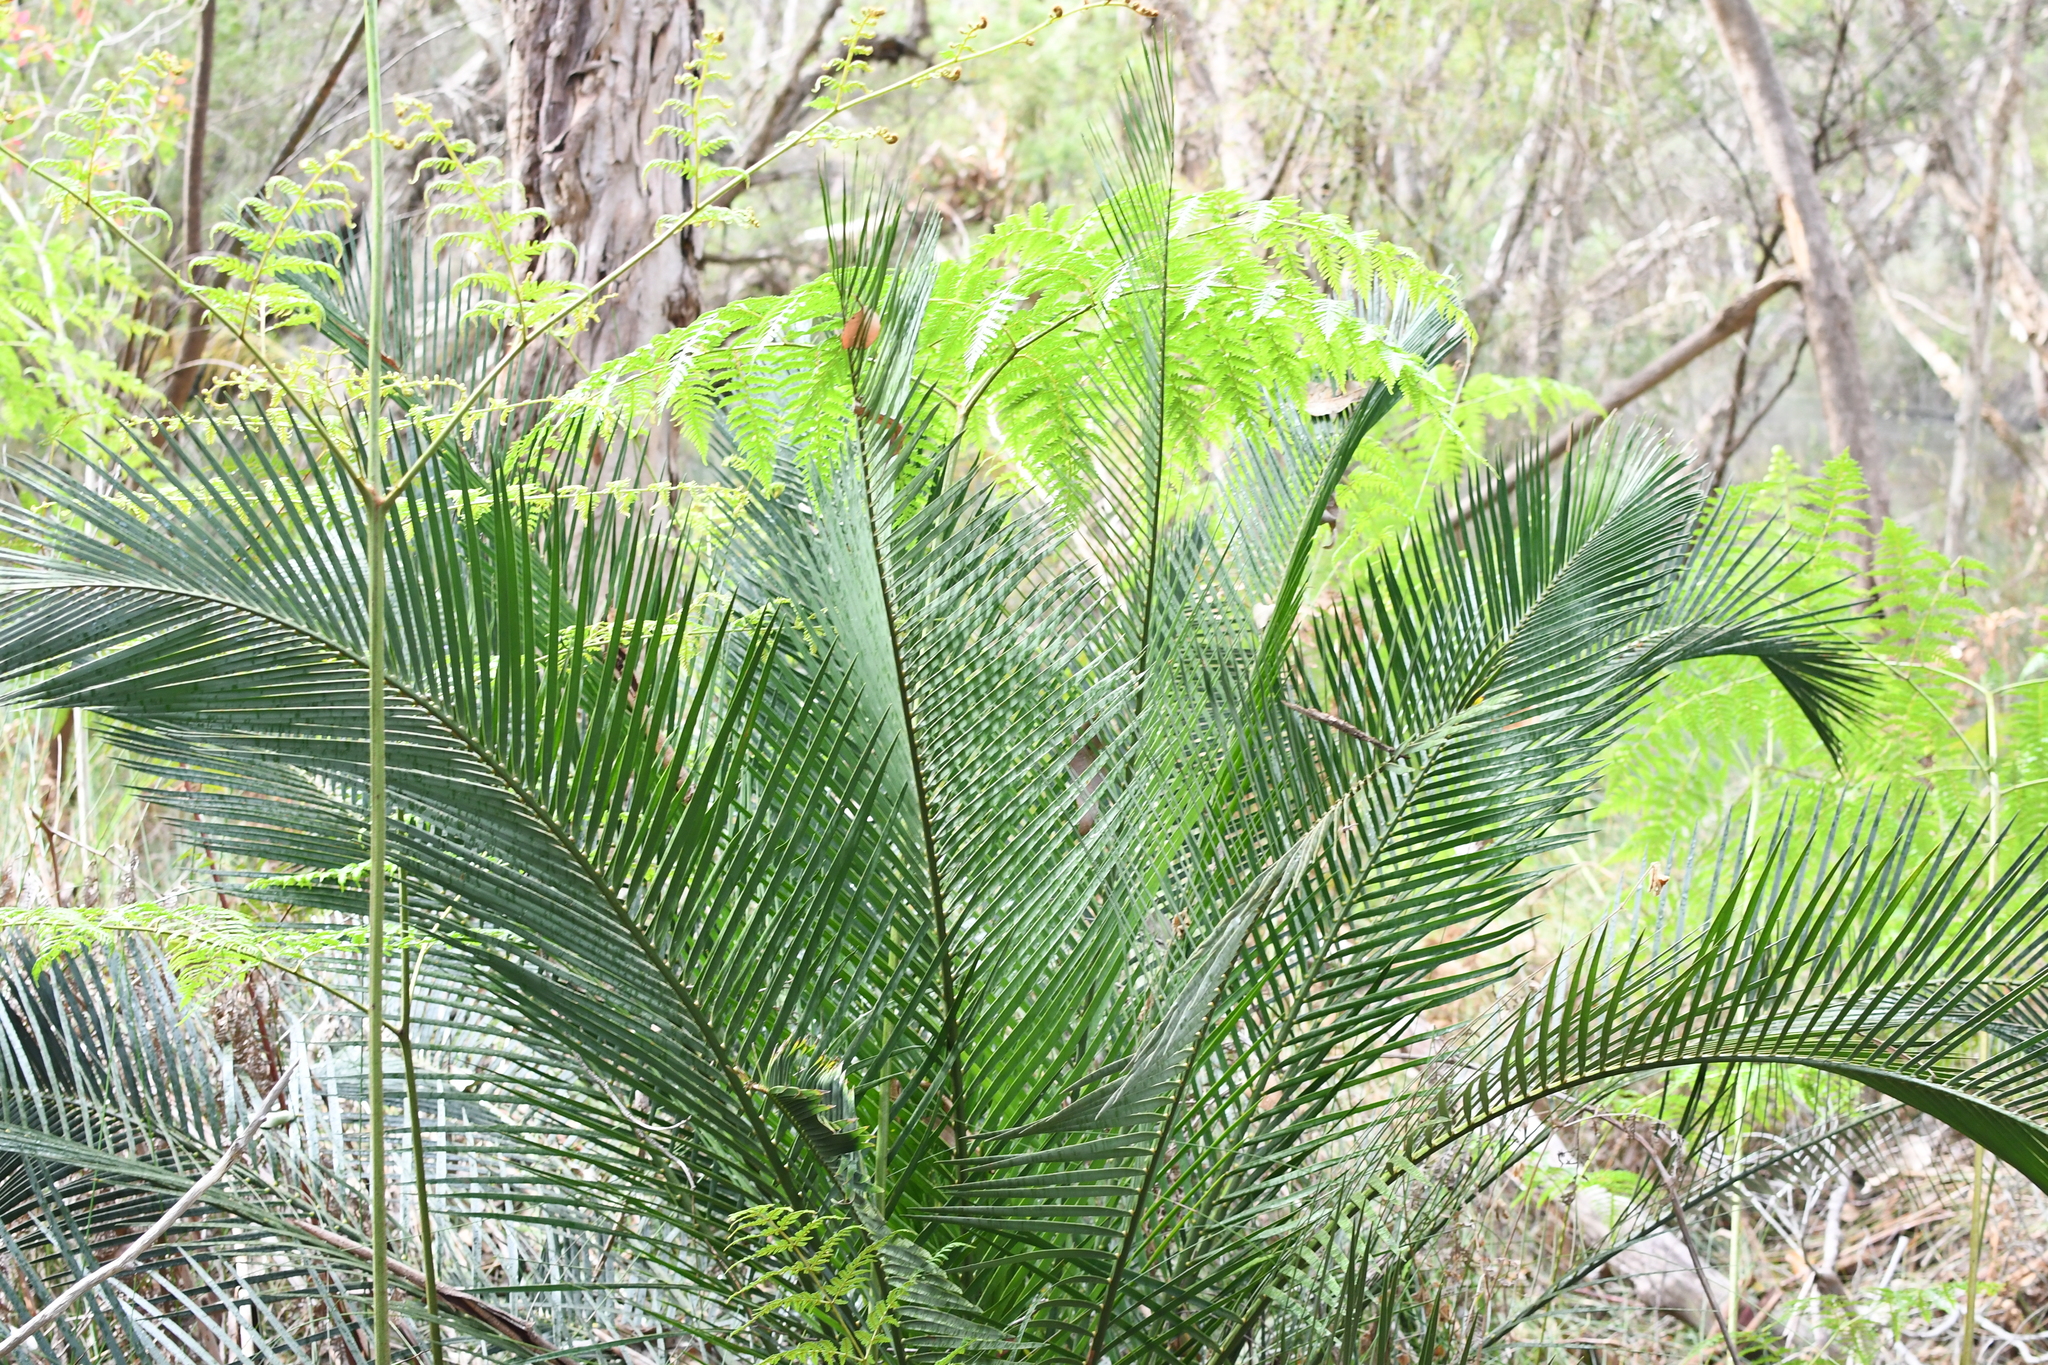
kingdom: Plantae
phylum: Tracheophyta
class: Cycadopsida
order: Cycadales
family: Zamiaceae
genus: Macrozamia
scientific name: Macrozamia riedlei
